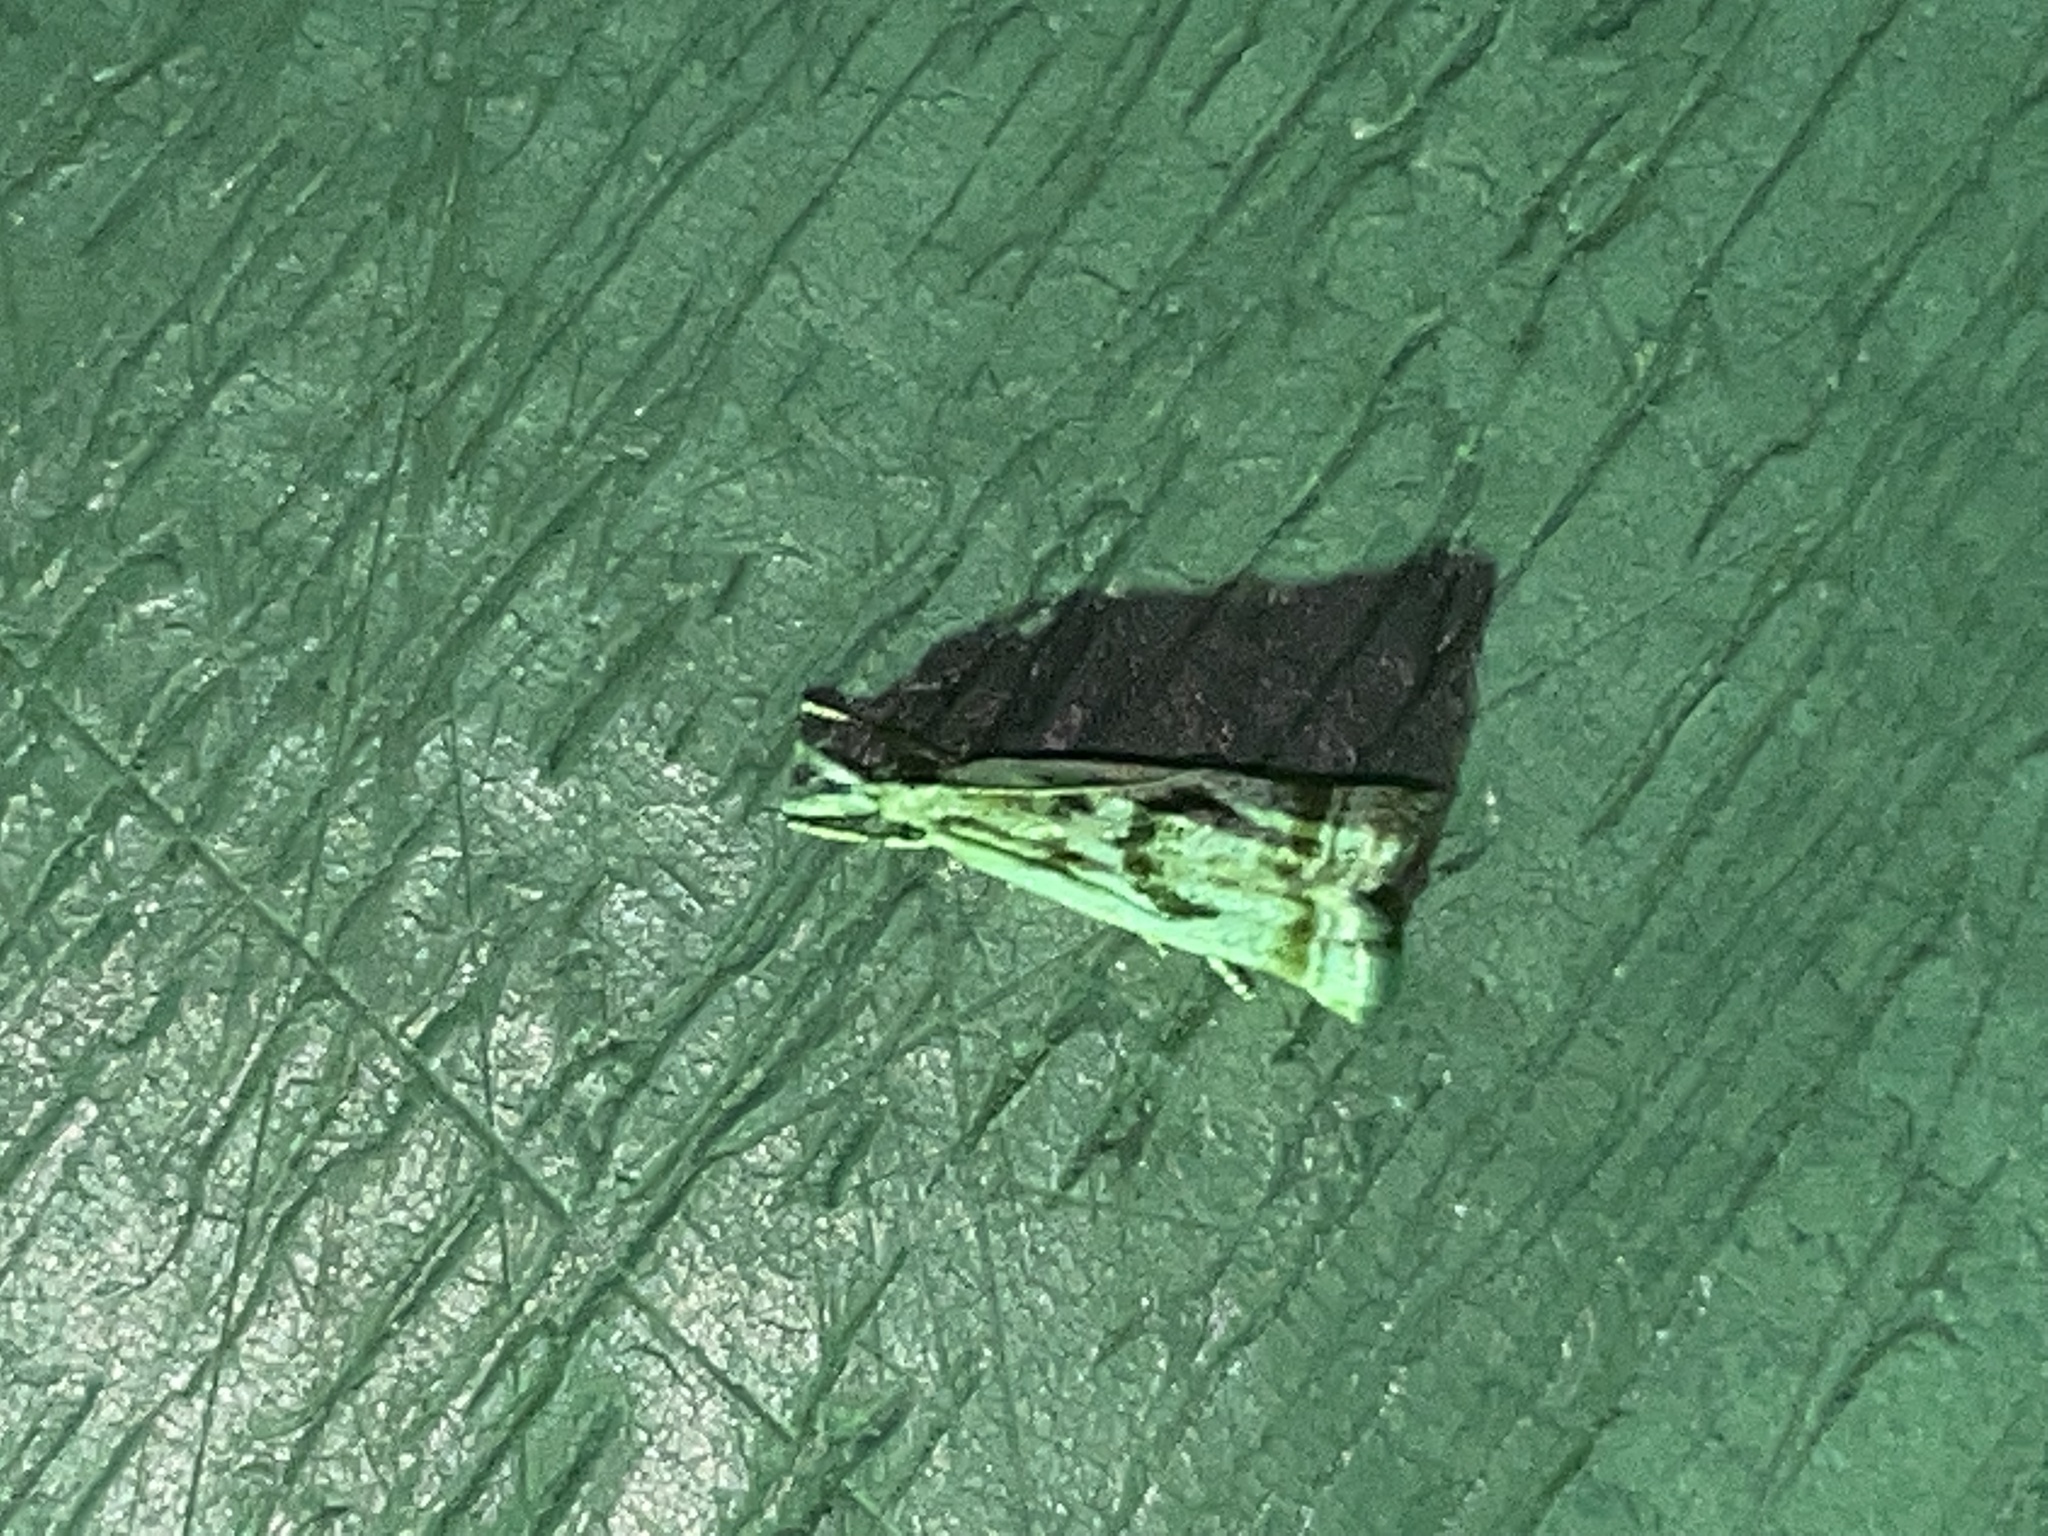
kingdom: Animalia
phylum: Arthropoda
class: Insecta
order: Lepidoptera
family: Crambidae
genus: Microcrambus
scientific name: Microcrambus elegans
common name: Elegant grass-veneer
